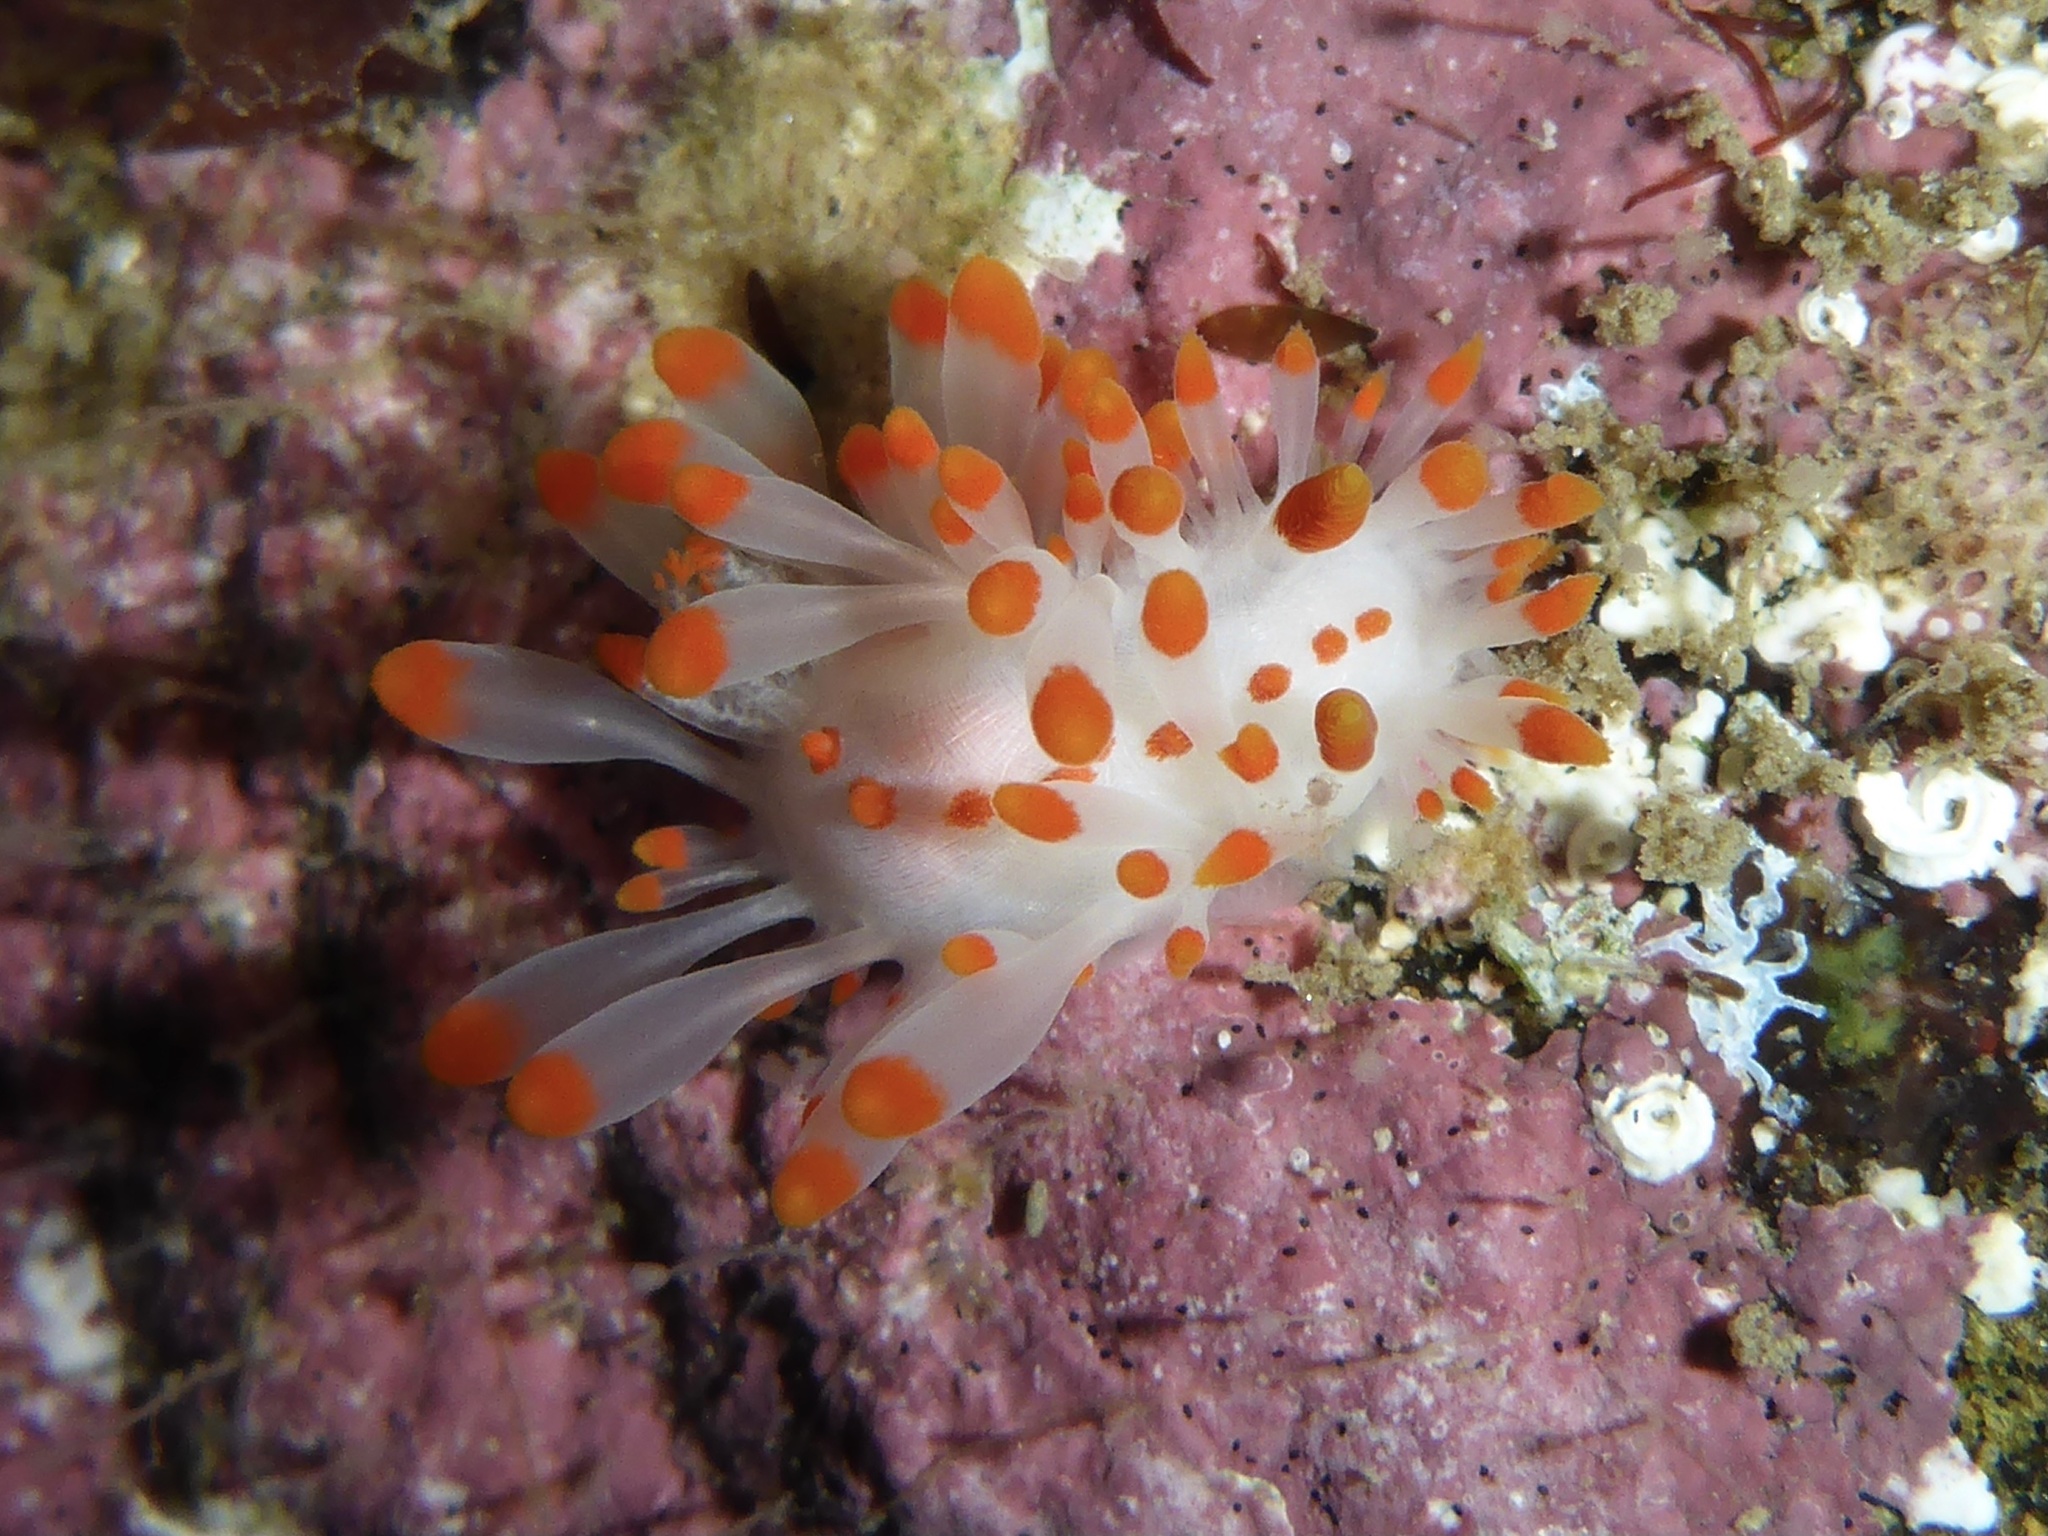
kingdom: Animalia
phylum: Mollusca
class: Gastropoda
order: Nudibranchia
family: Polyceridae
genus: Limacia
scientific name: Limacia mcdonaldi
